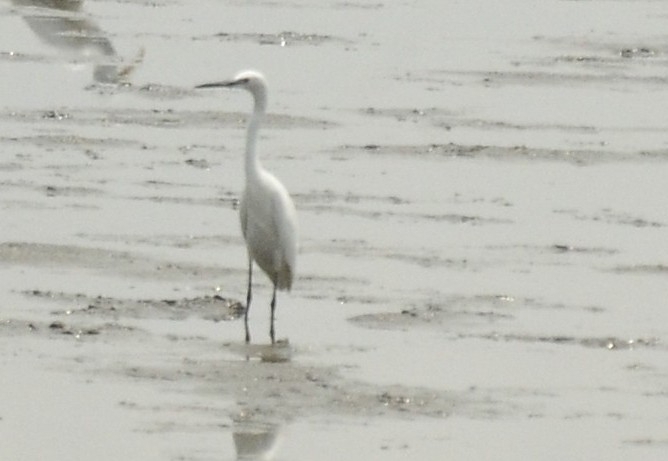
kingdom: Animalia
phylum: Chordata
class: Aves
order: Pelecaniformes
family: Ardeidae
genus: Egretta
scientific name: Egretta garzetta
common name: Little egret
